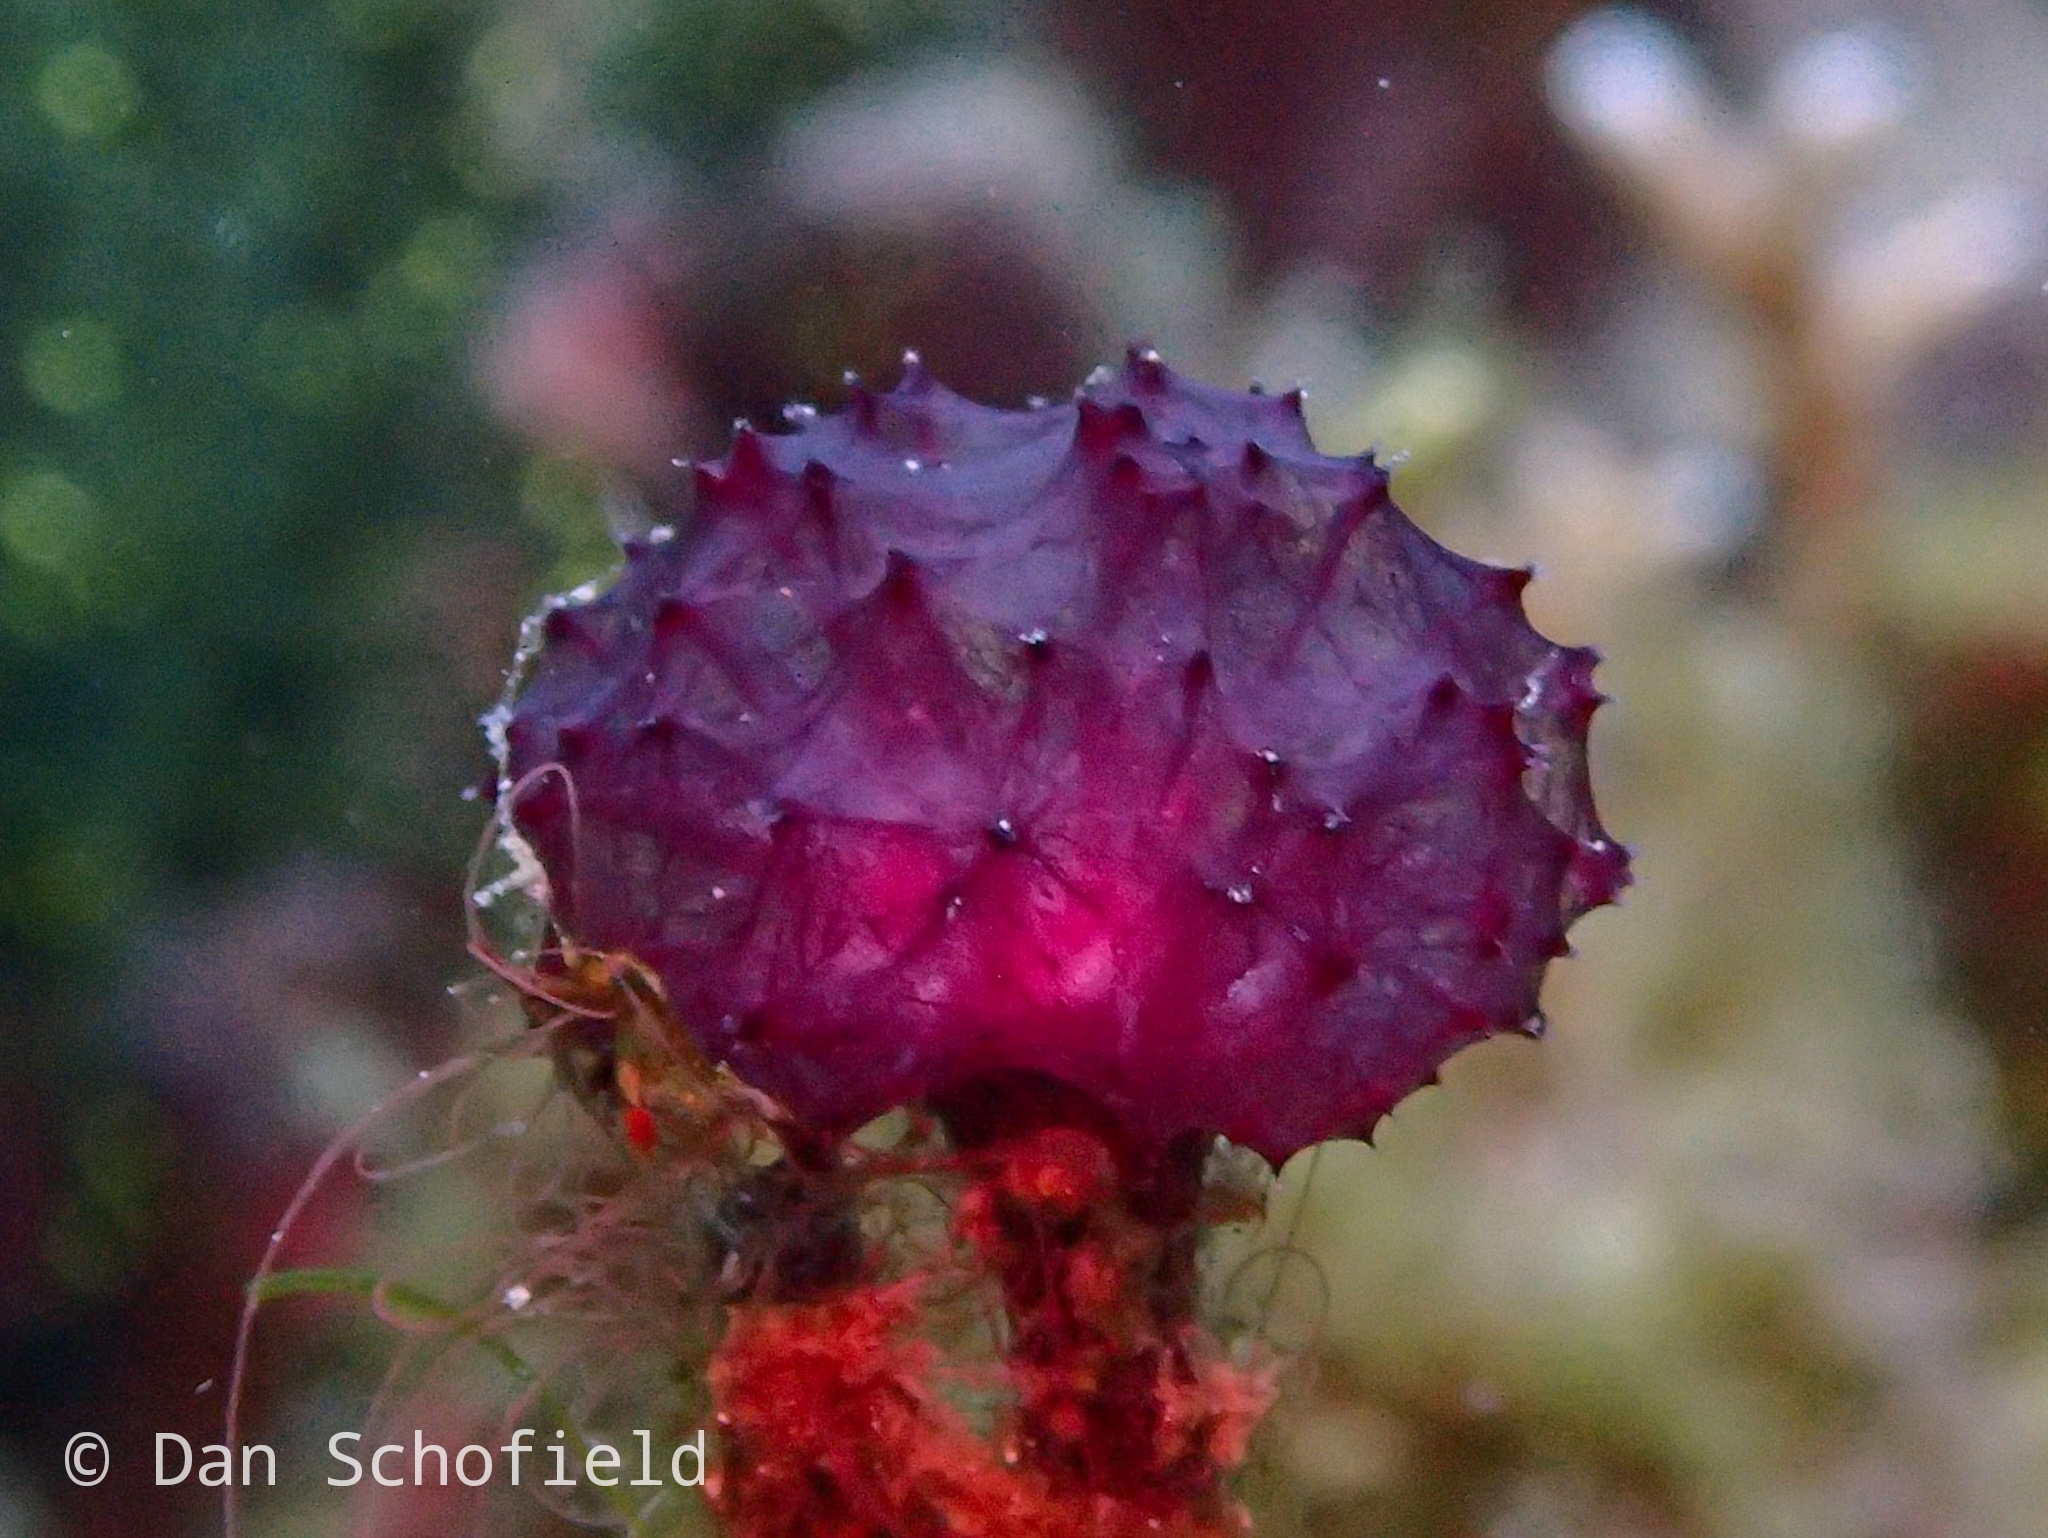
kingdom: Animalia
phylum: Porifera
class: Demospongiae
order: Haplosclerida
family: Phloeodictyidae
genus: Oceanapia
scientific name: Oceanapia sagittaria
